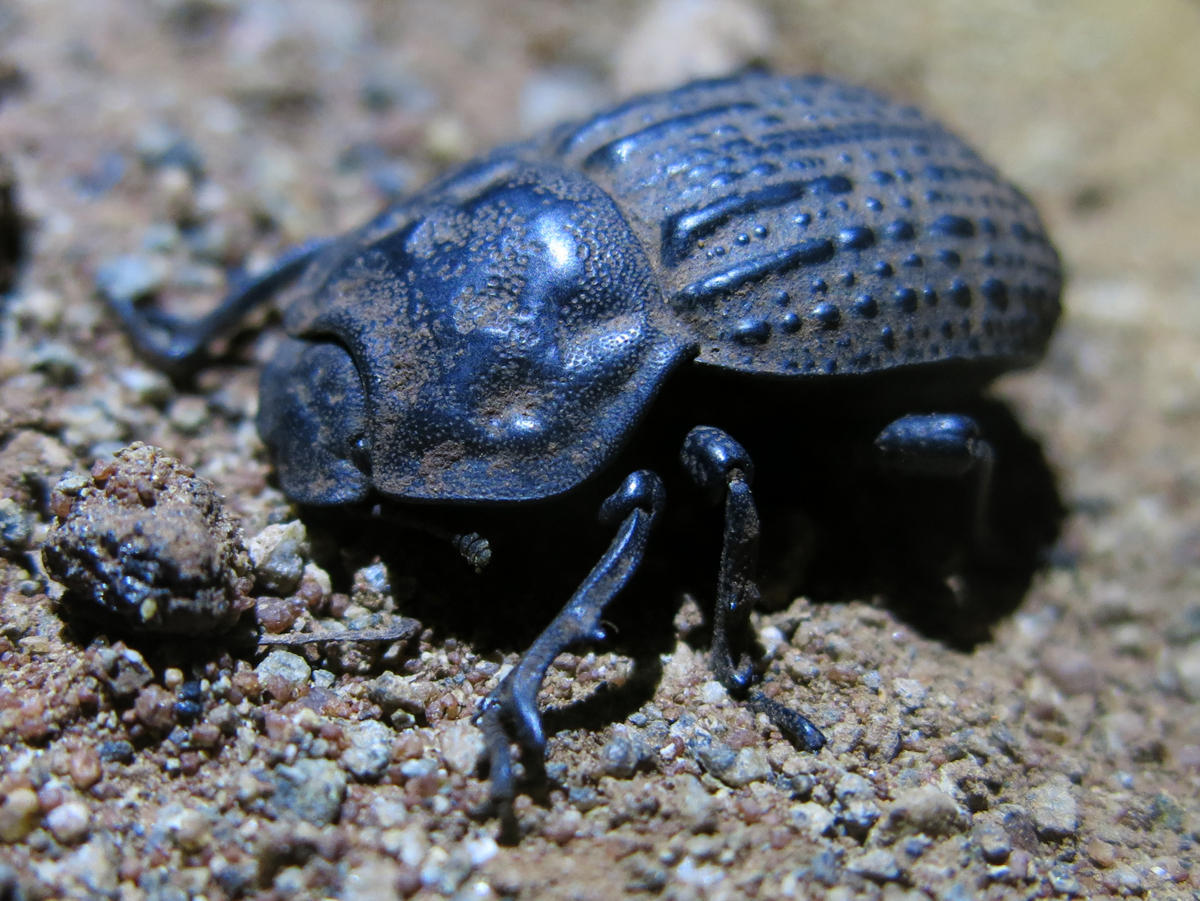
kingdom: Animalia
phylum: Arthropoda
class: Insecta
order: Coleoptera
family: Tenebrionidae
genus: Anomalipus
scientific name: Anomalipus
